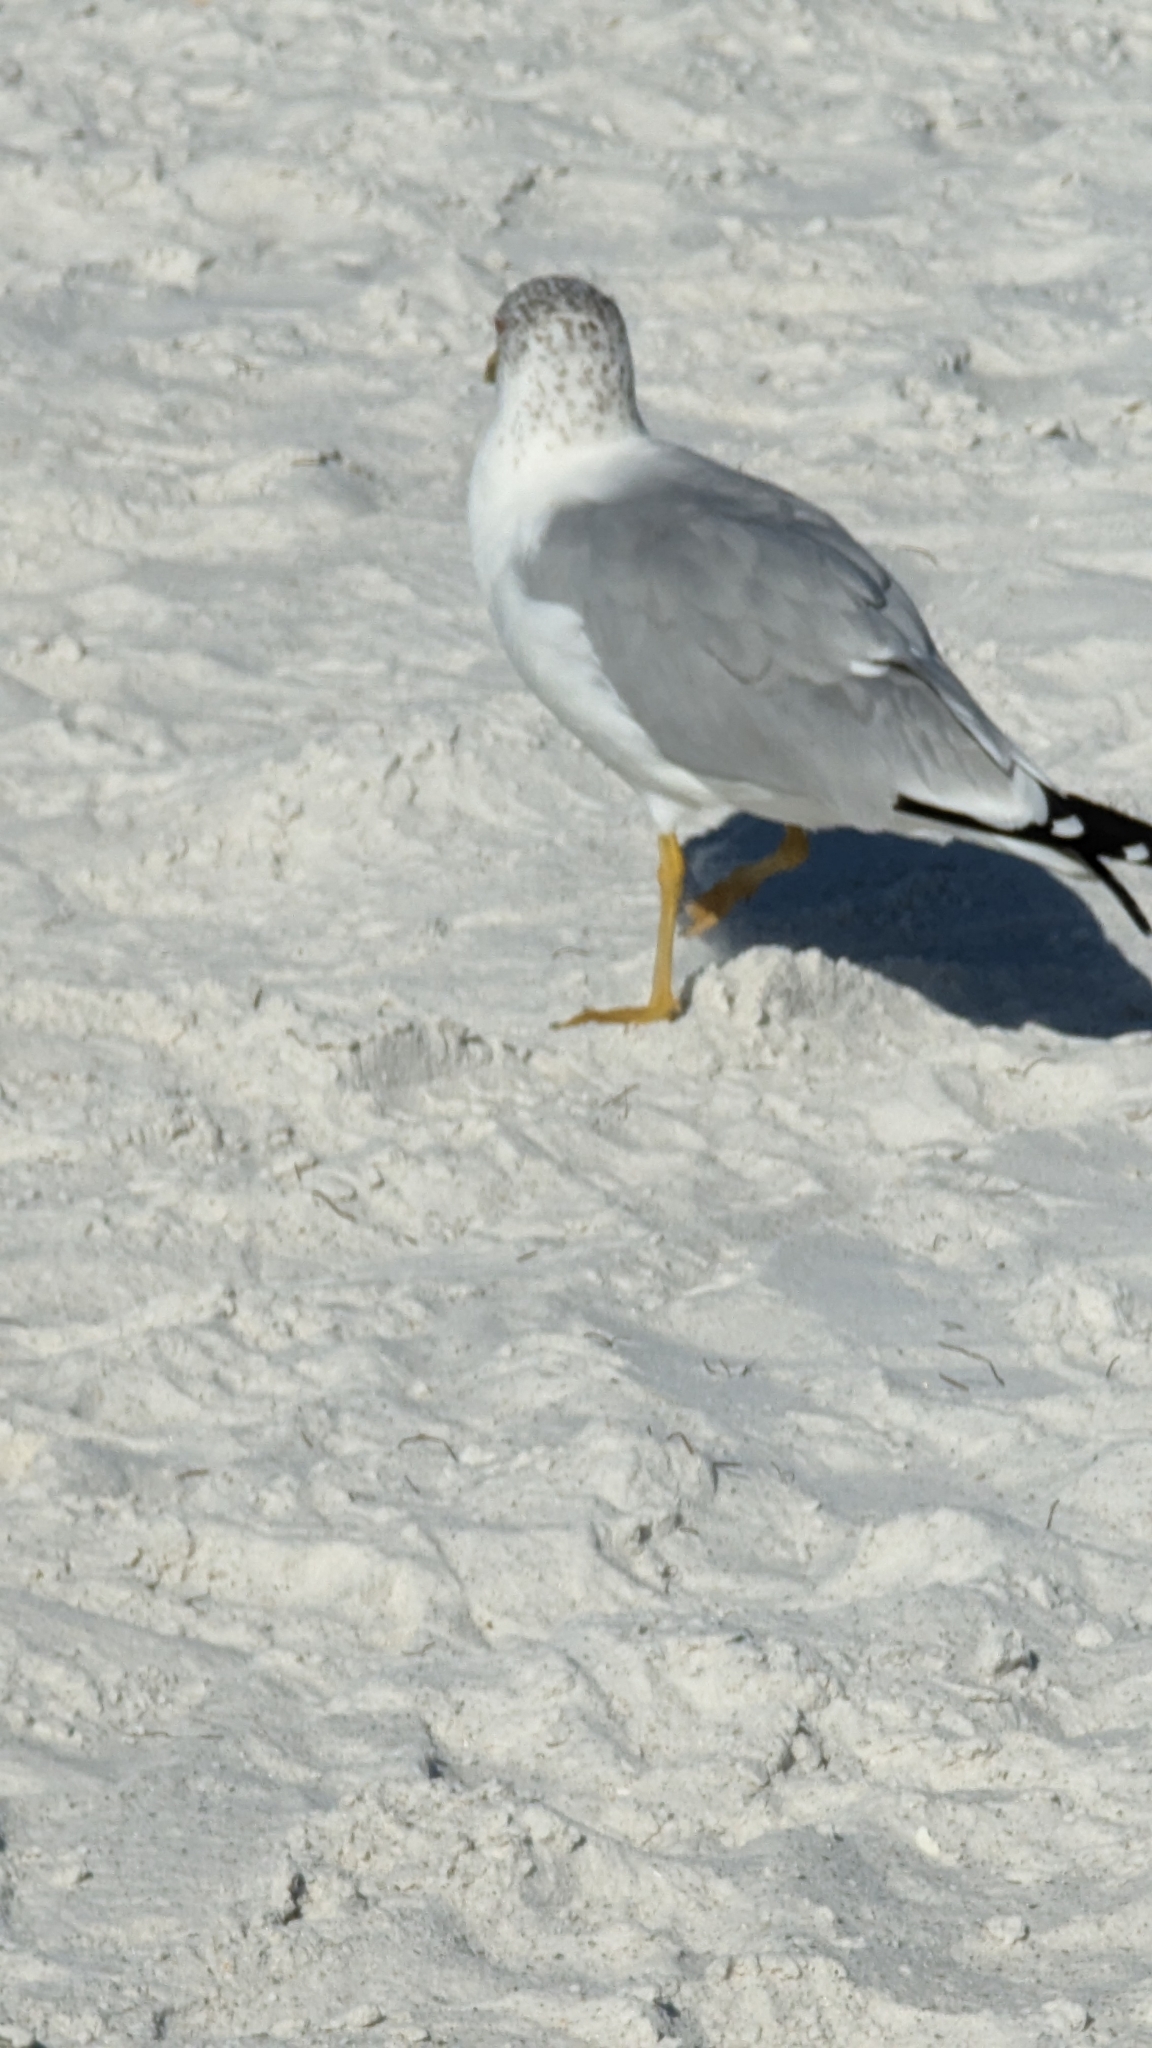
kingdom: Animalia
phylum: Chordata
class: Aves
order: Charadriiformes
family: Laridae
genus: Larus
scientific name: Larus delawarensis
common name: Ring-billed gull
